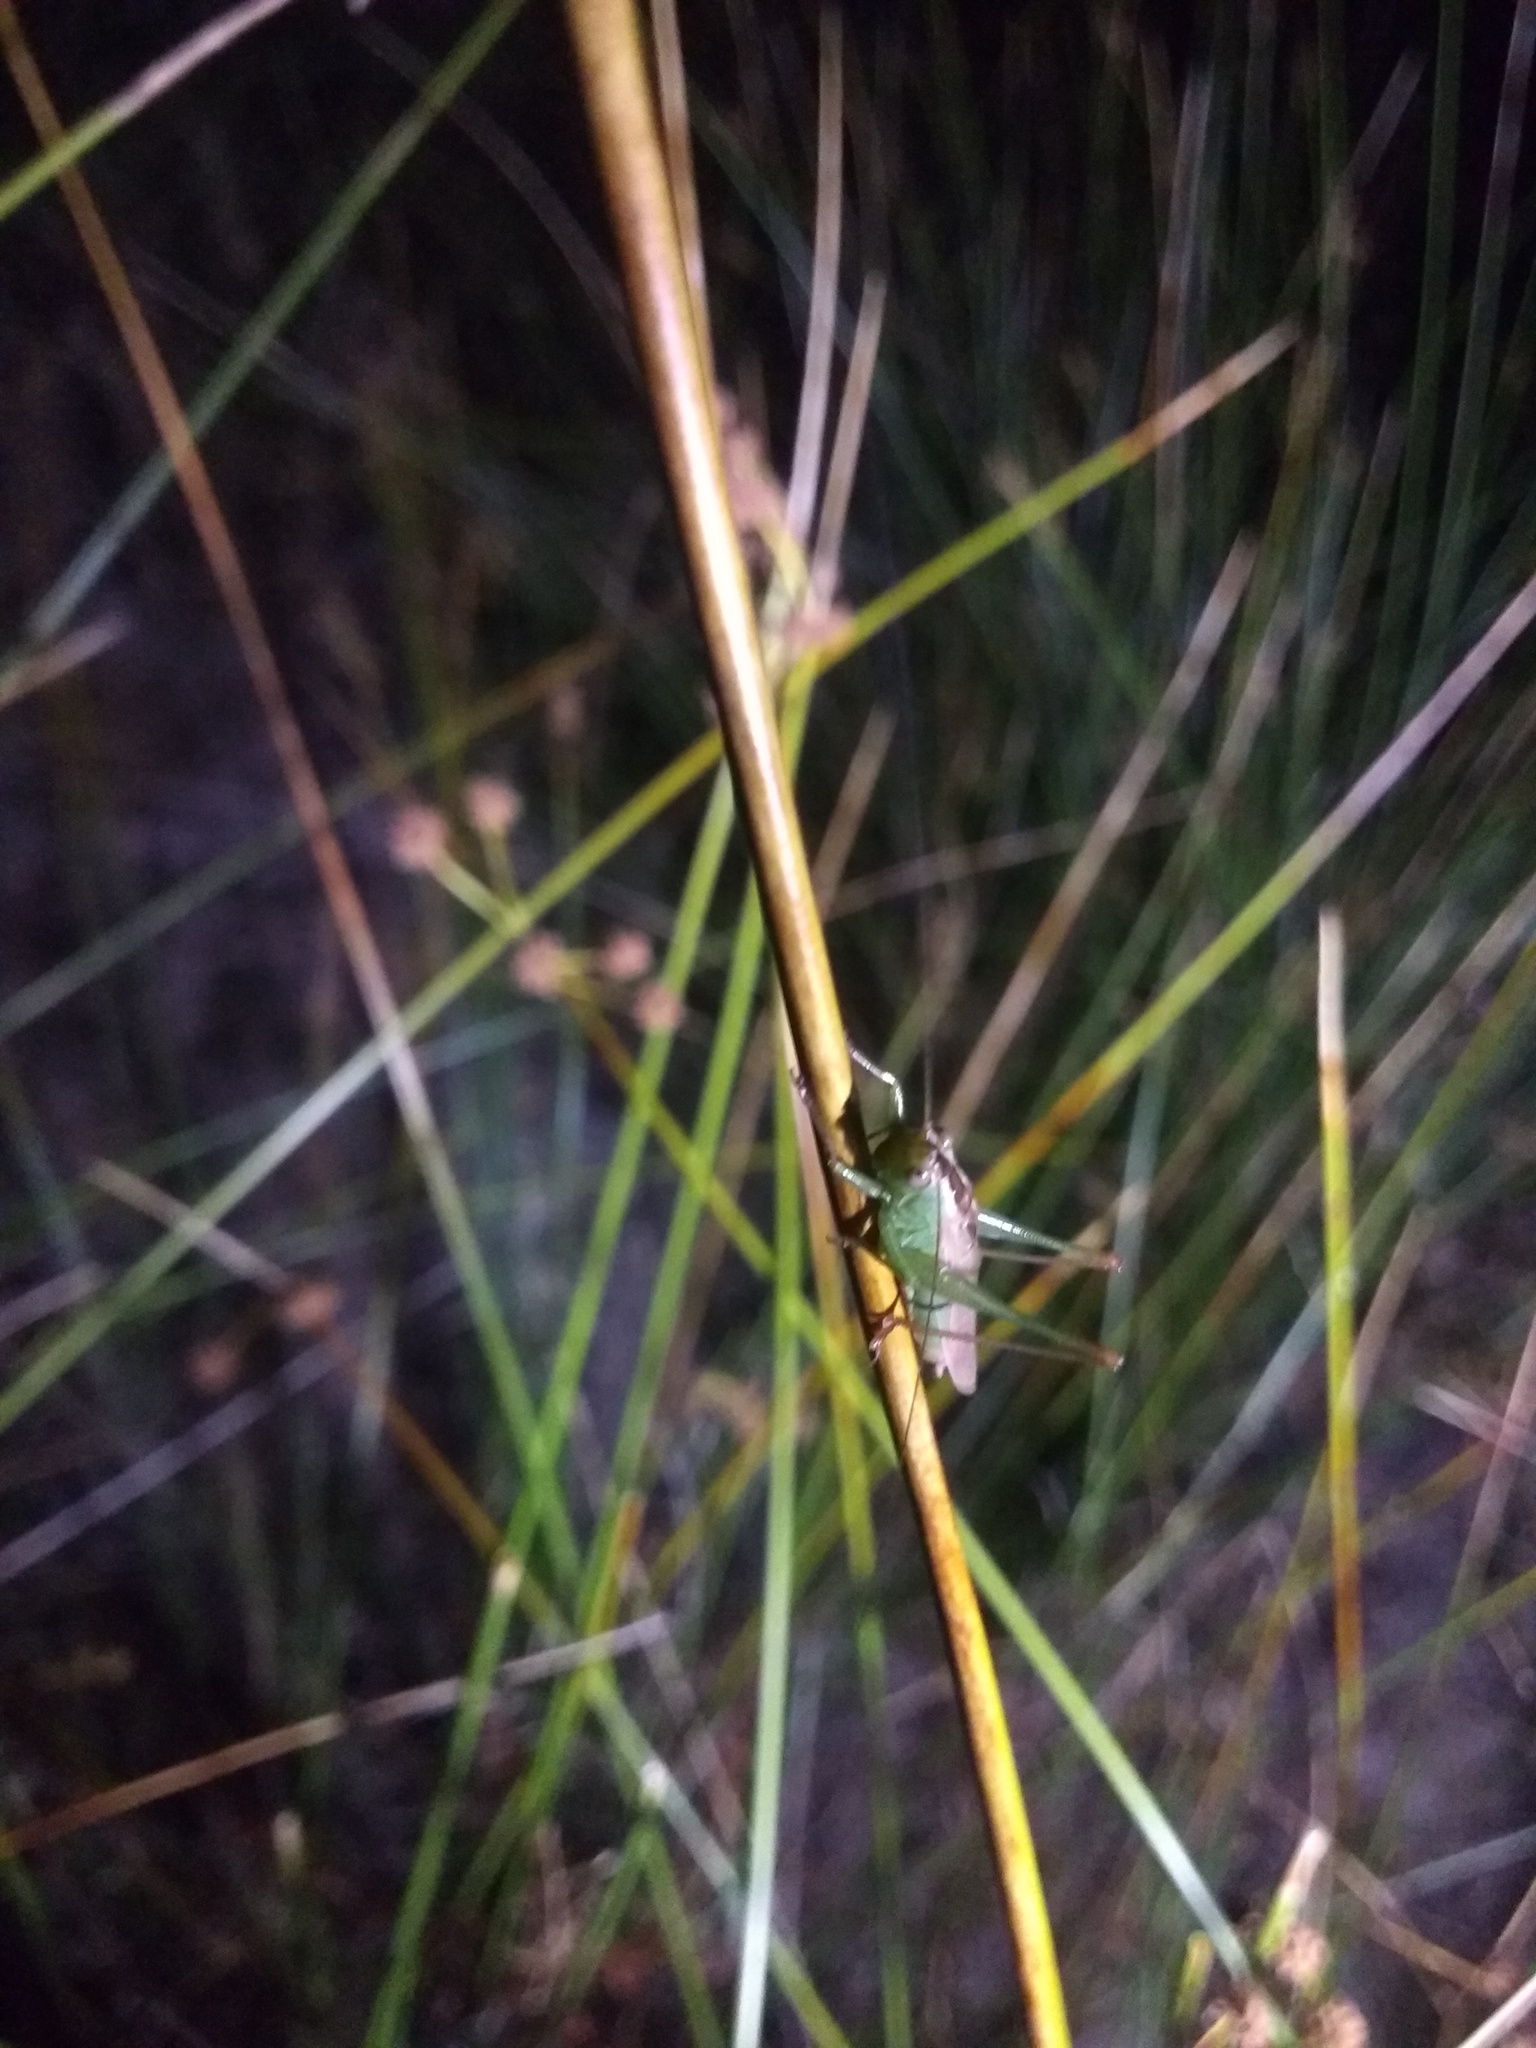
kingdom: Animalia
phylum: Arthropoda
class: Insecta
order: Orthoptera
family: Tettigoniidae
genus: Conocephalus
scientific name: Conocephalus fuscus
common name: Long-winged conehead
